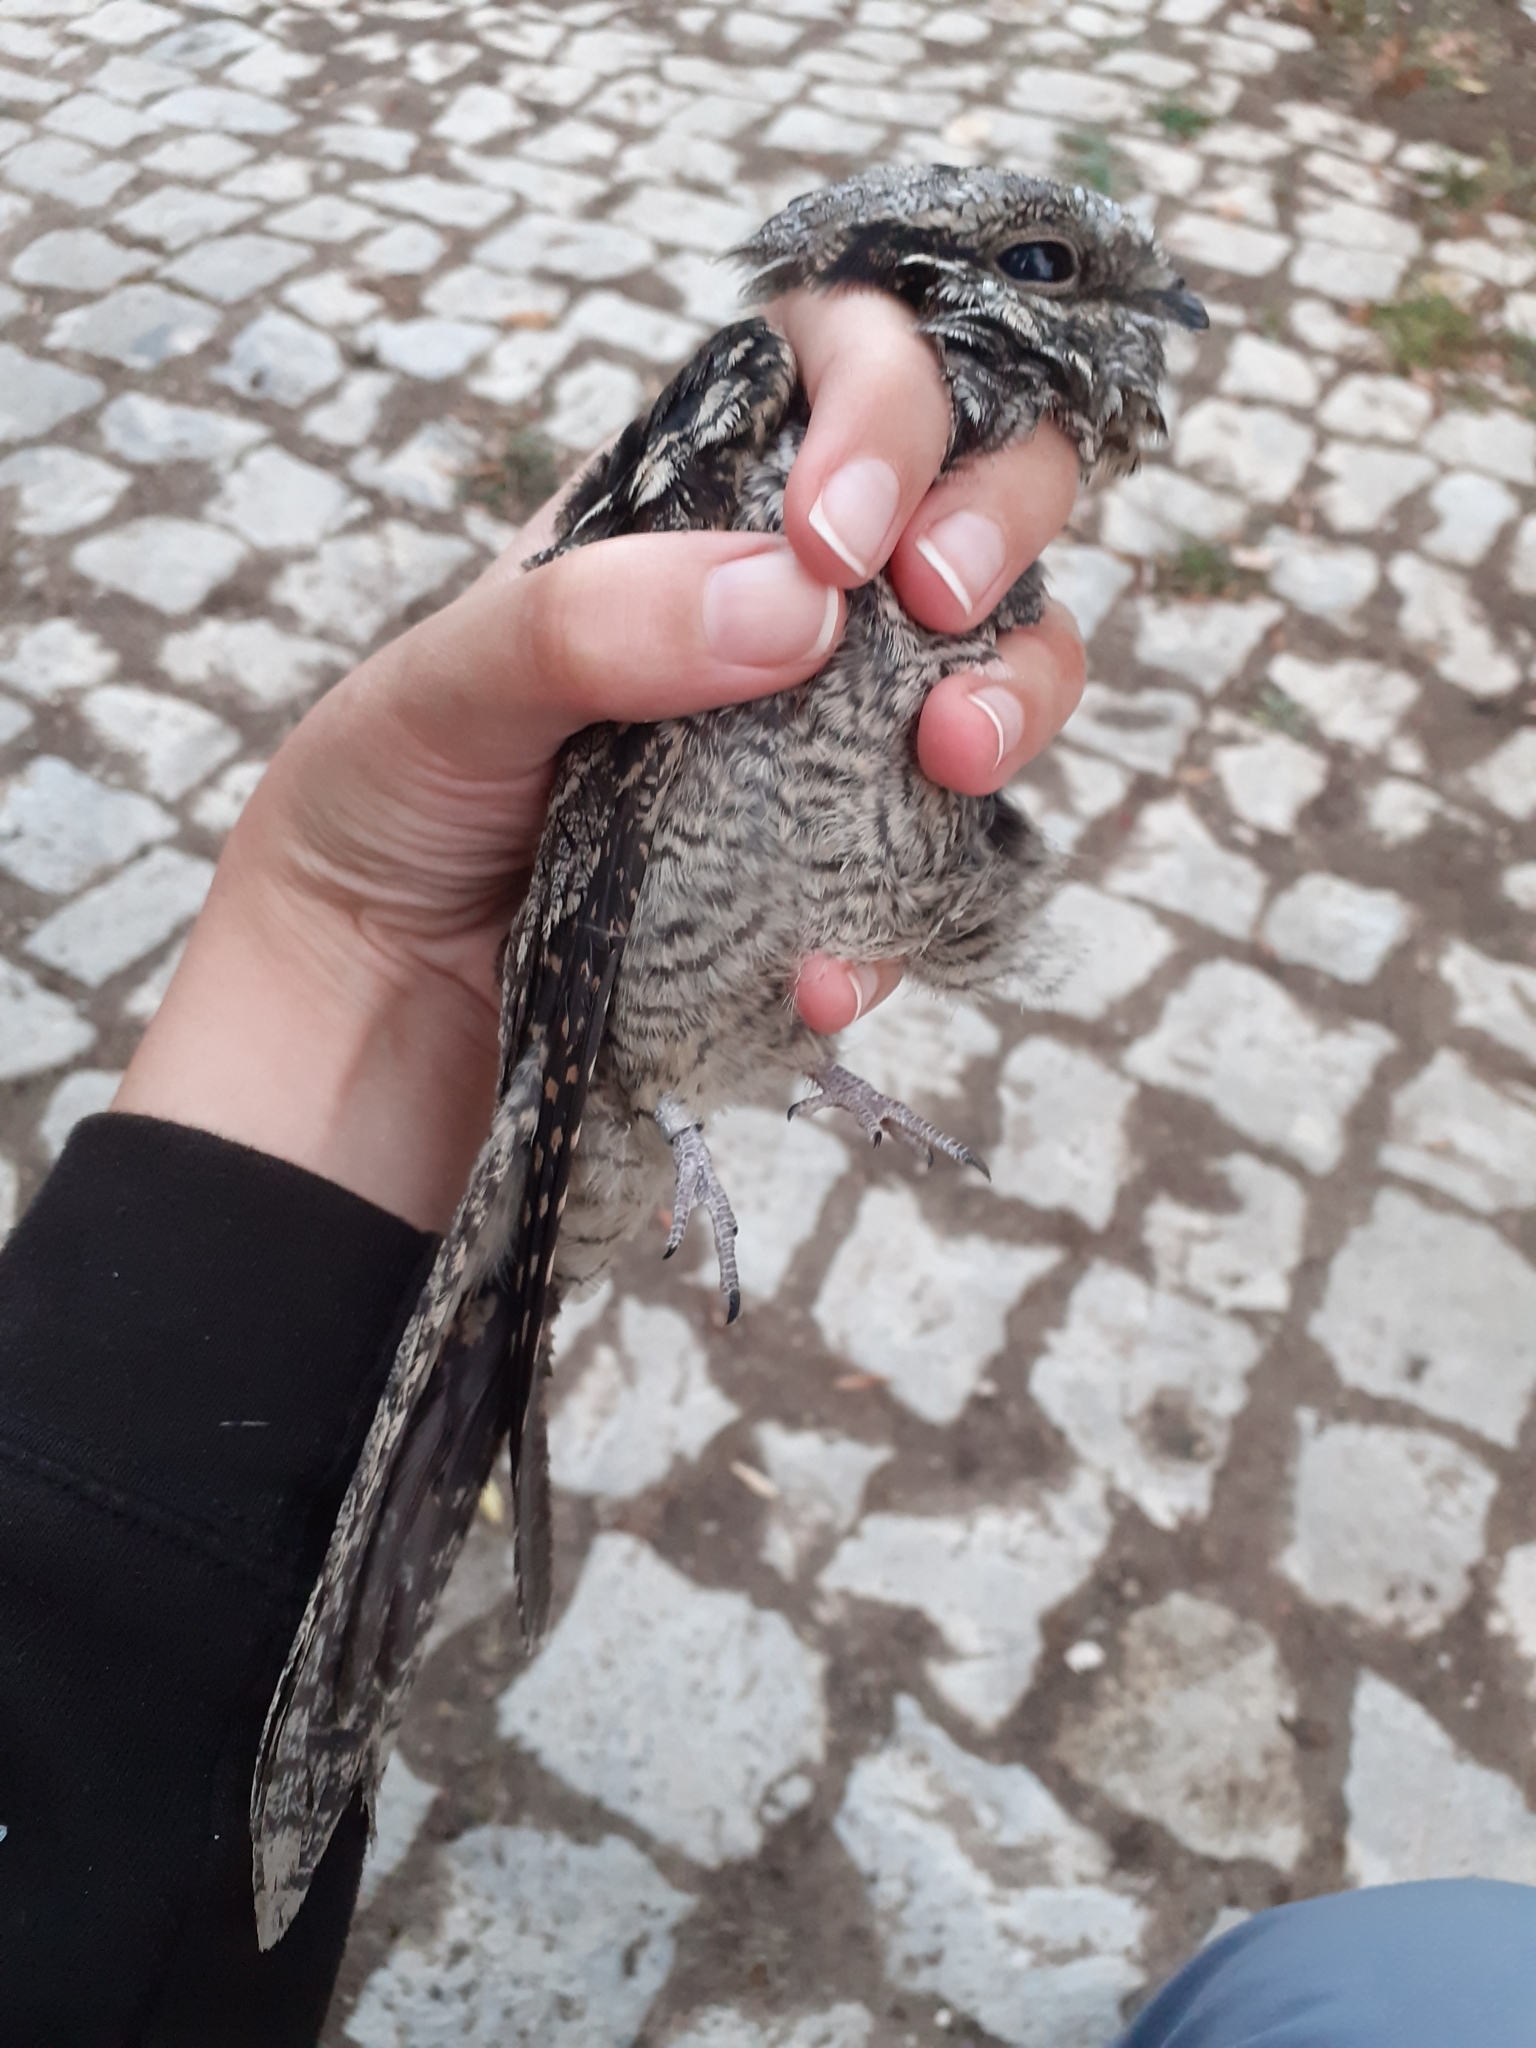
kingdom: Animalia
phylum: Chordata
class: Aves
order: Caprimulgiformes
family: Caprimulgidae
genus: Caprimulgus
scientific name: Caprimulgus europaeus
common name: European nightjar
